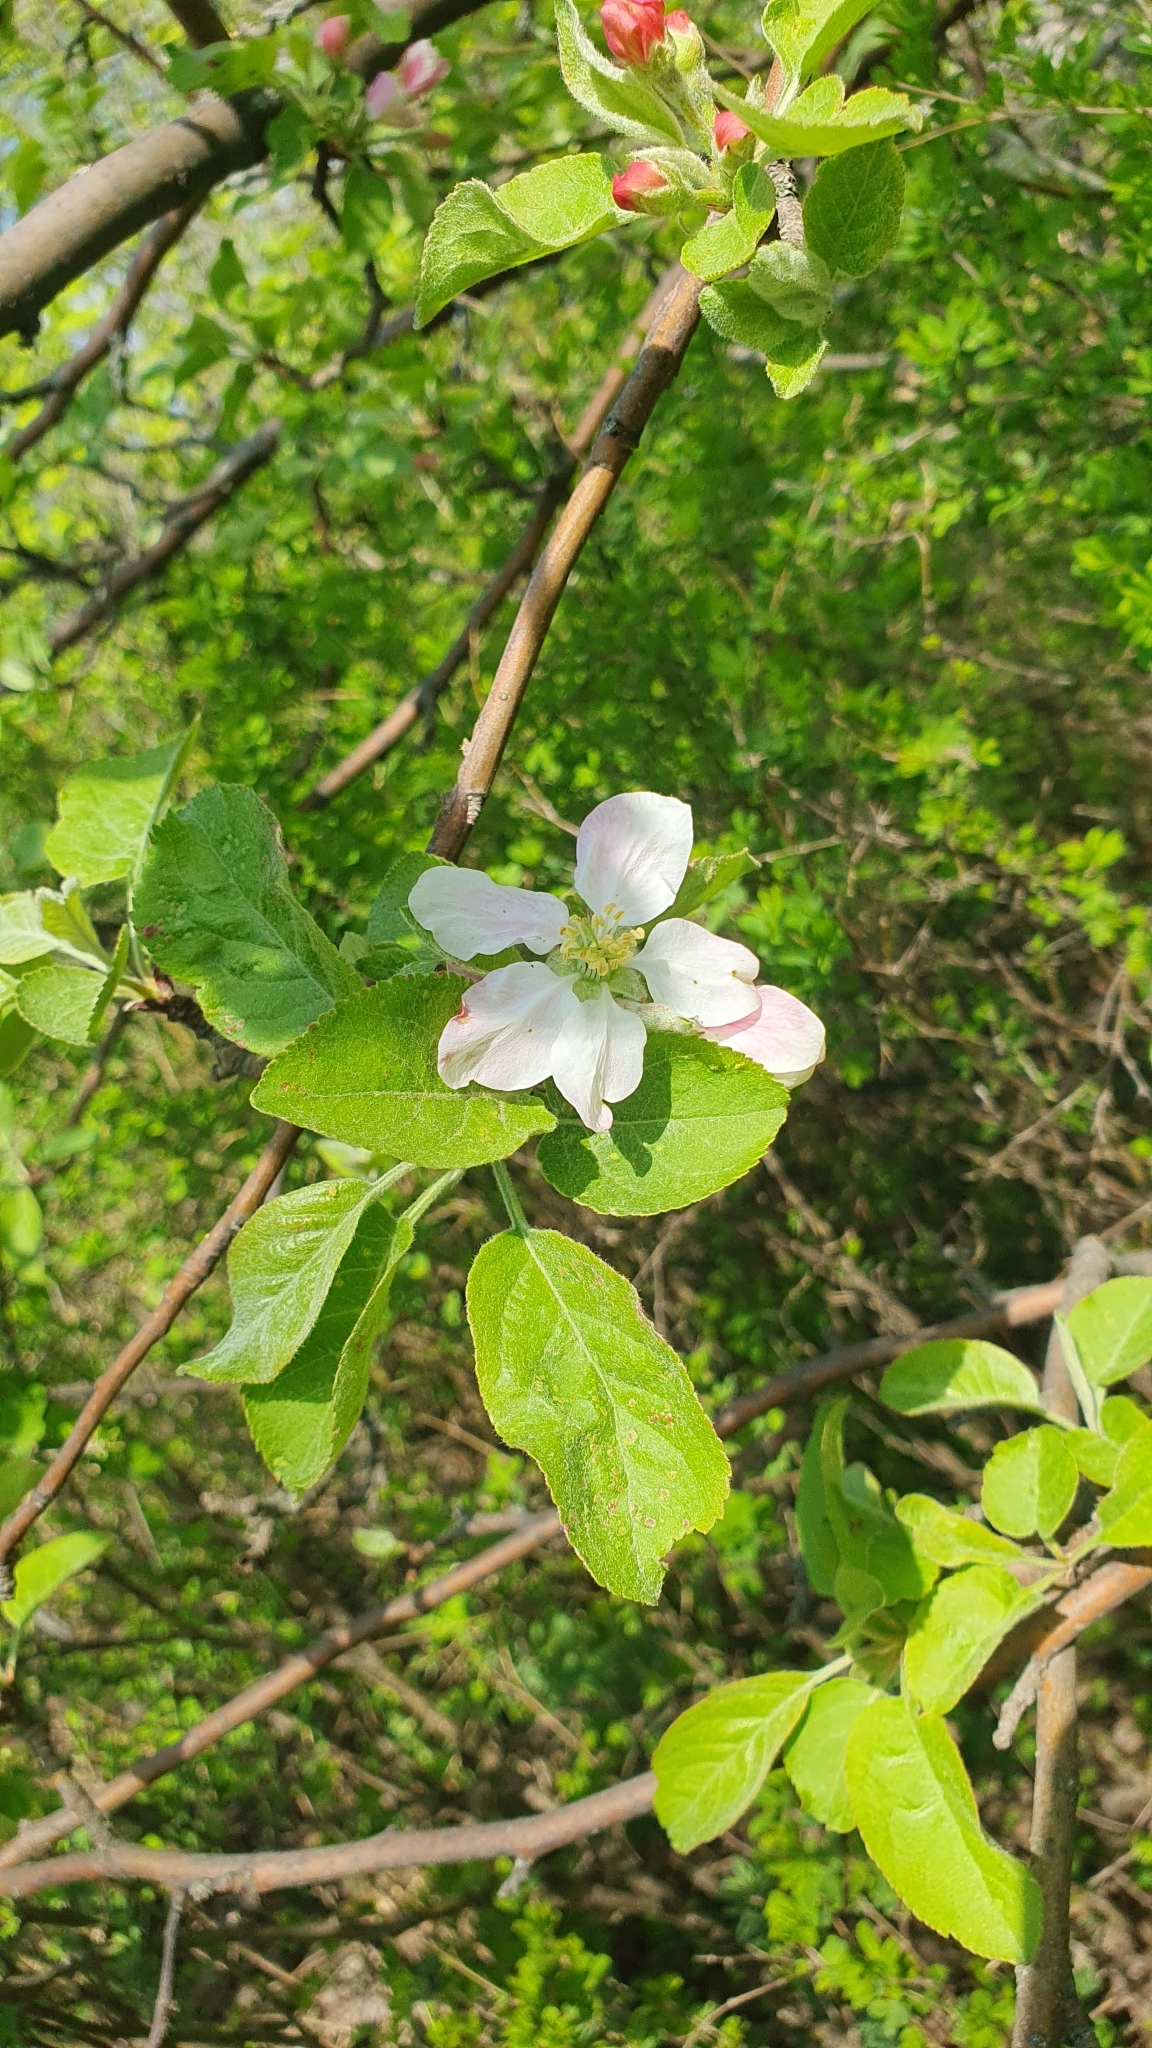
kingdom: Plantae
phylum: Tracheophyta
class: Magnoliopsida
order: Rosales
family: Rosaceae
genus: Malus
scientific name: Malus domestica
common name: Apple
